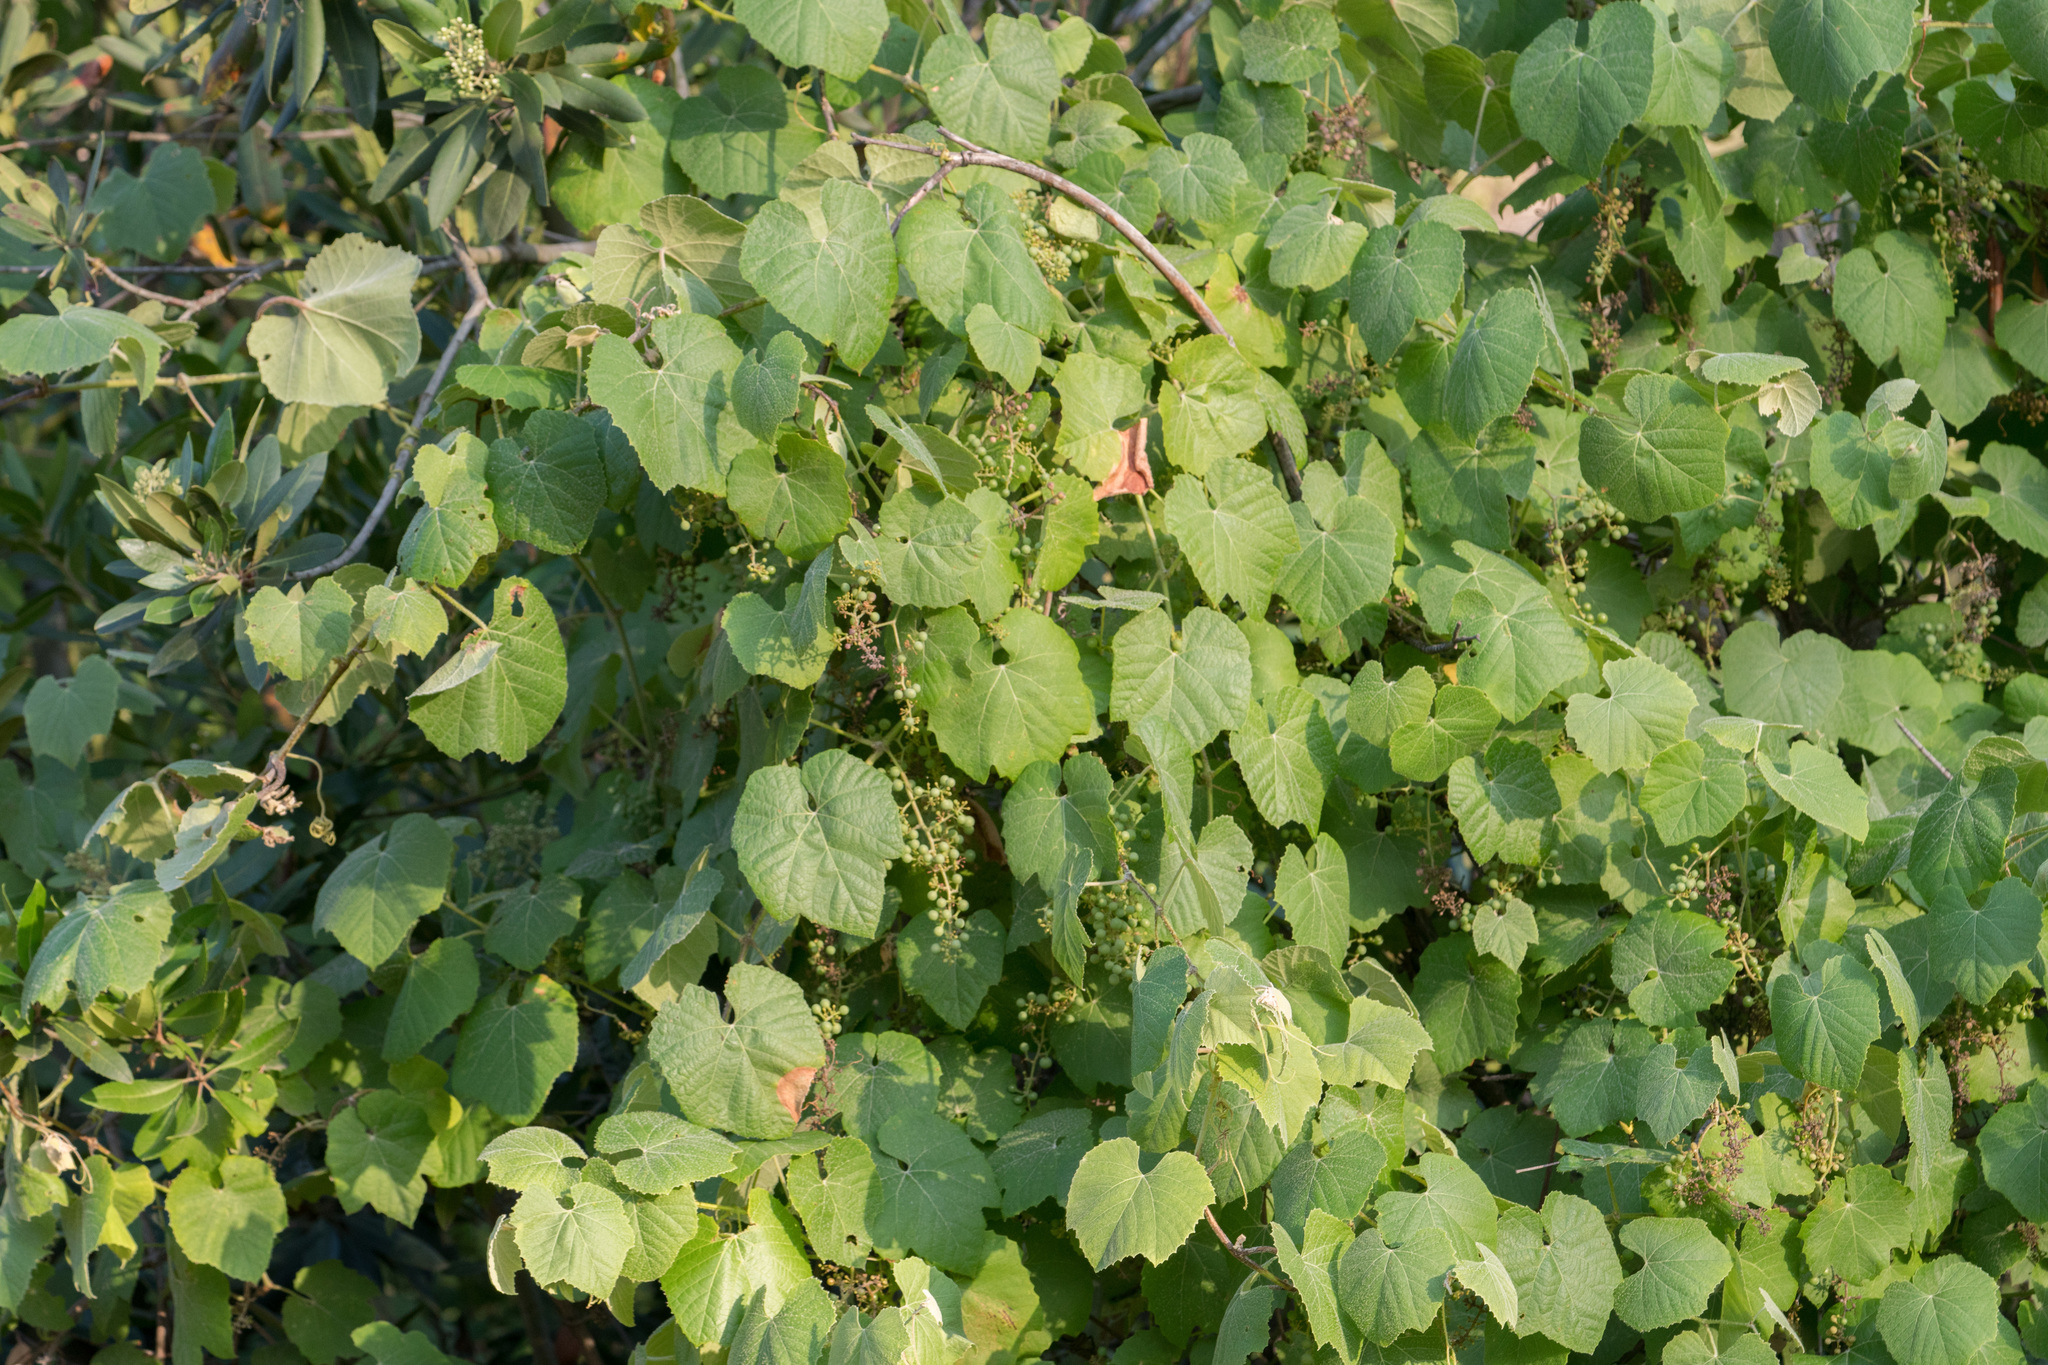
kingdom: Plantae
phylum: Tracheophyta
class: Magnoliopsida
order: Vitales
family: Vitaceae
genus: Vitis
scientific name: Vitis girdiana
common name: Desert wild grape
